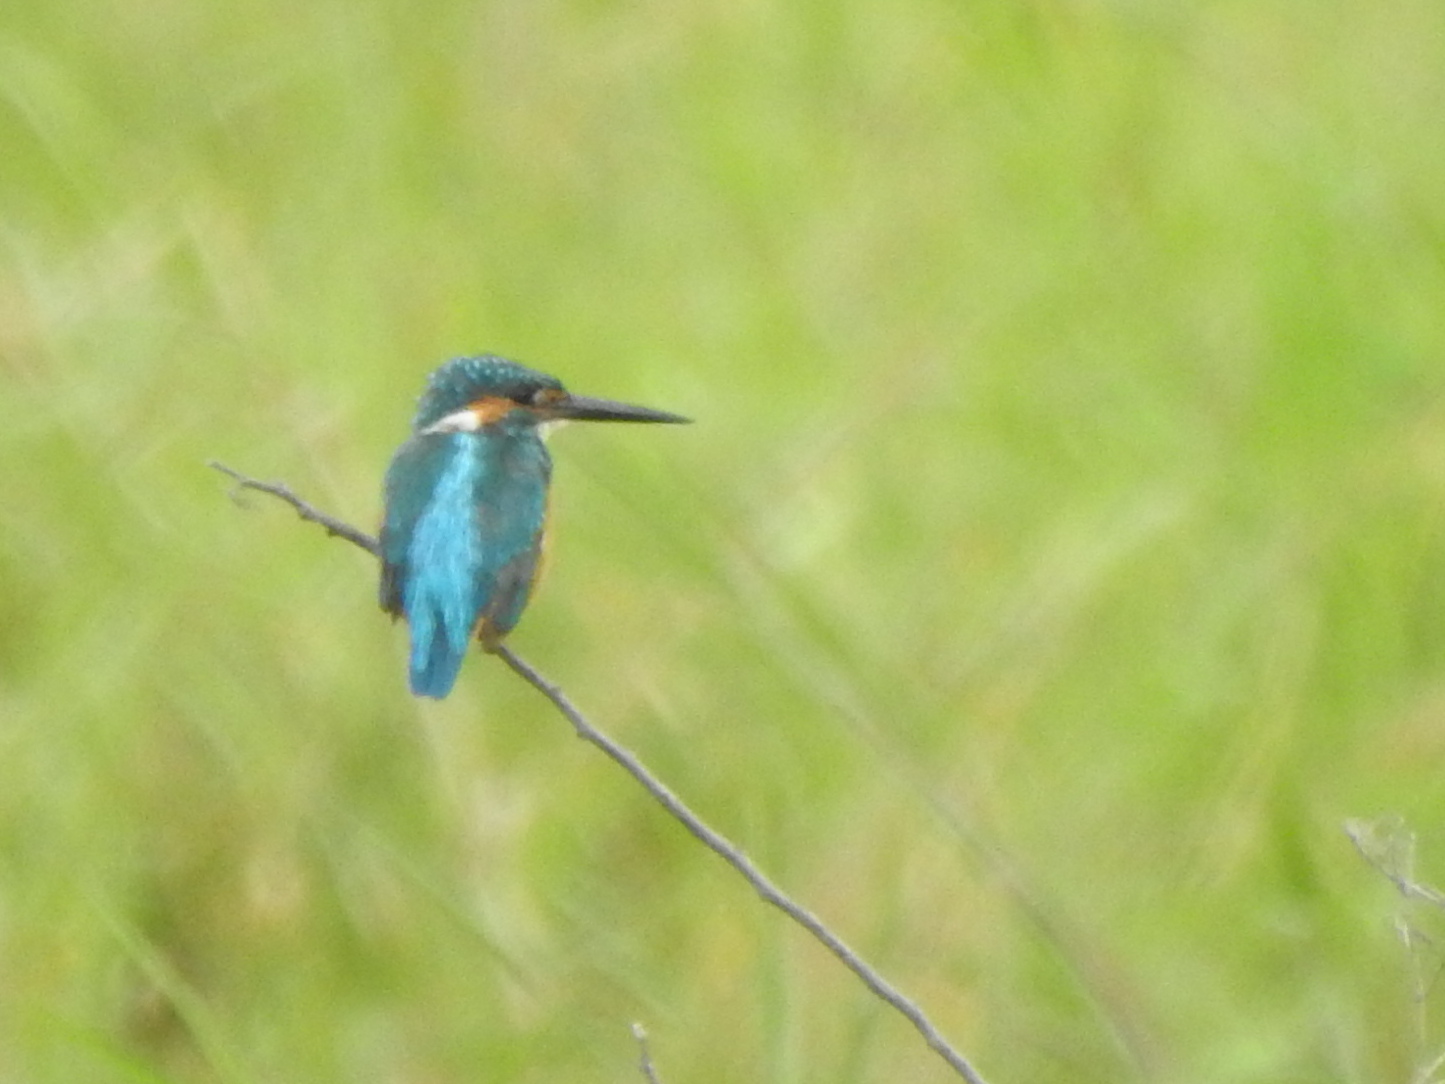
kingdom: Animalia
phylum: Chordata
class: Aves
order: Coraciiformes
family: Alcedinidae
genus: Alcedo
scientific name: Alcedo atthis
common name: Common kingfisher
